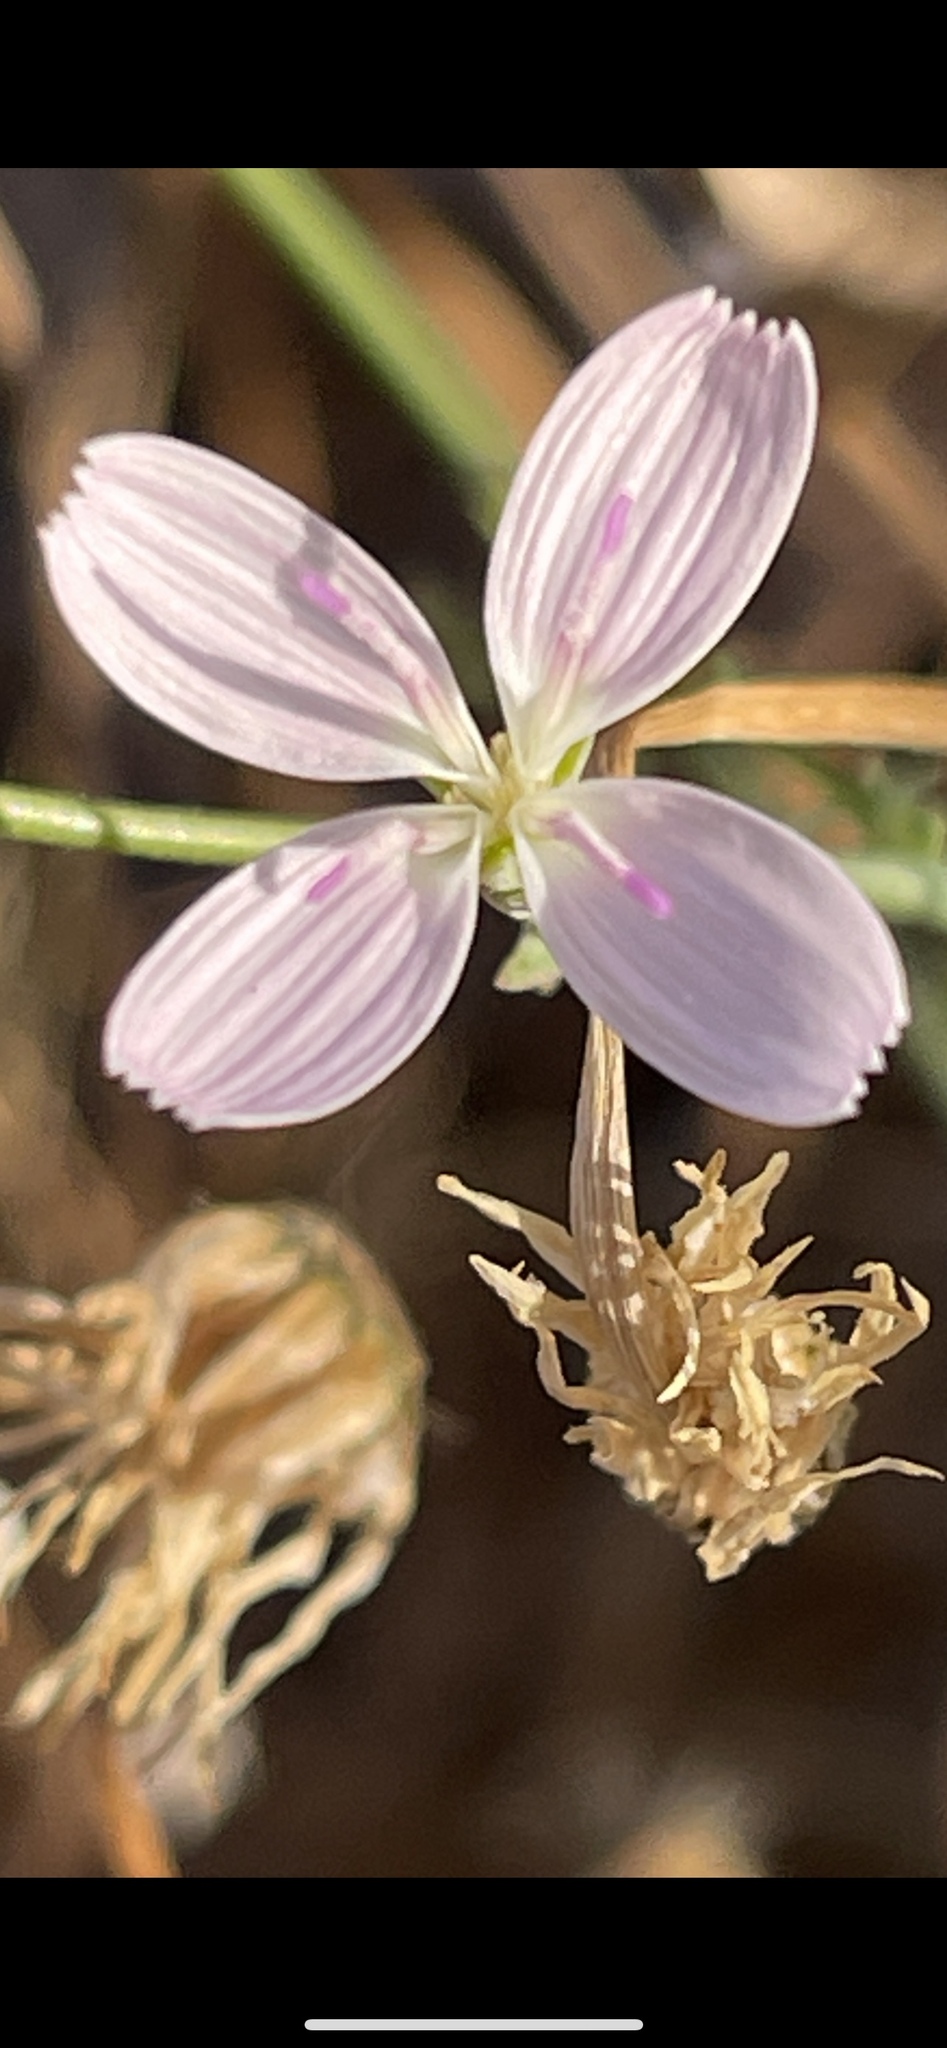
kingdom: Plantae
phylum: Tracheophyta
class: Magnoliopsida
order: Asterales
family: Asteraceae
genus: Stephanomeria
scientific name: Stephanomeria exigua
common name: Small wirelettuce
